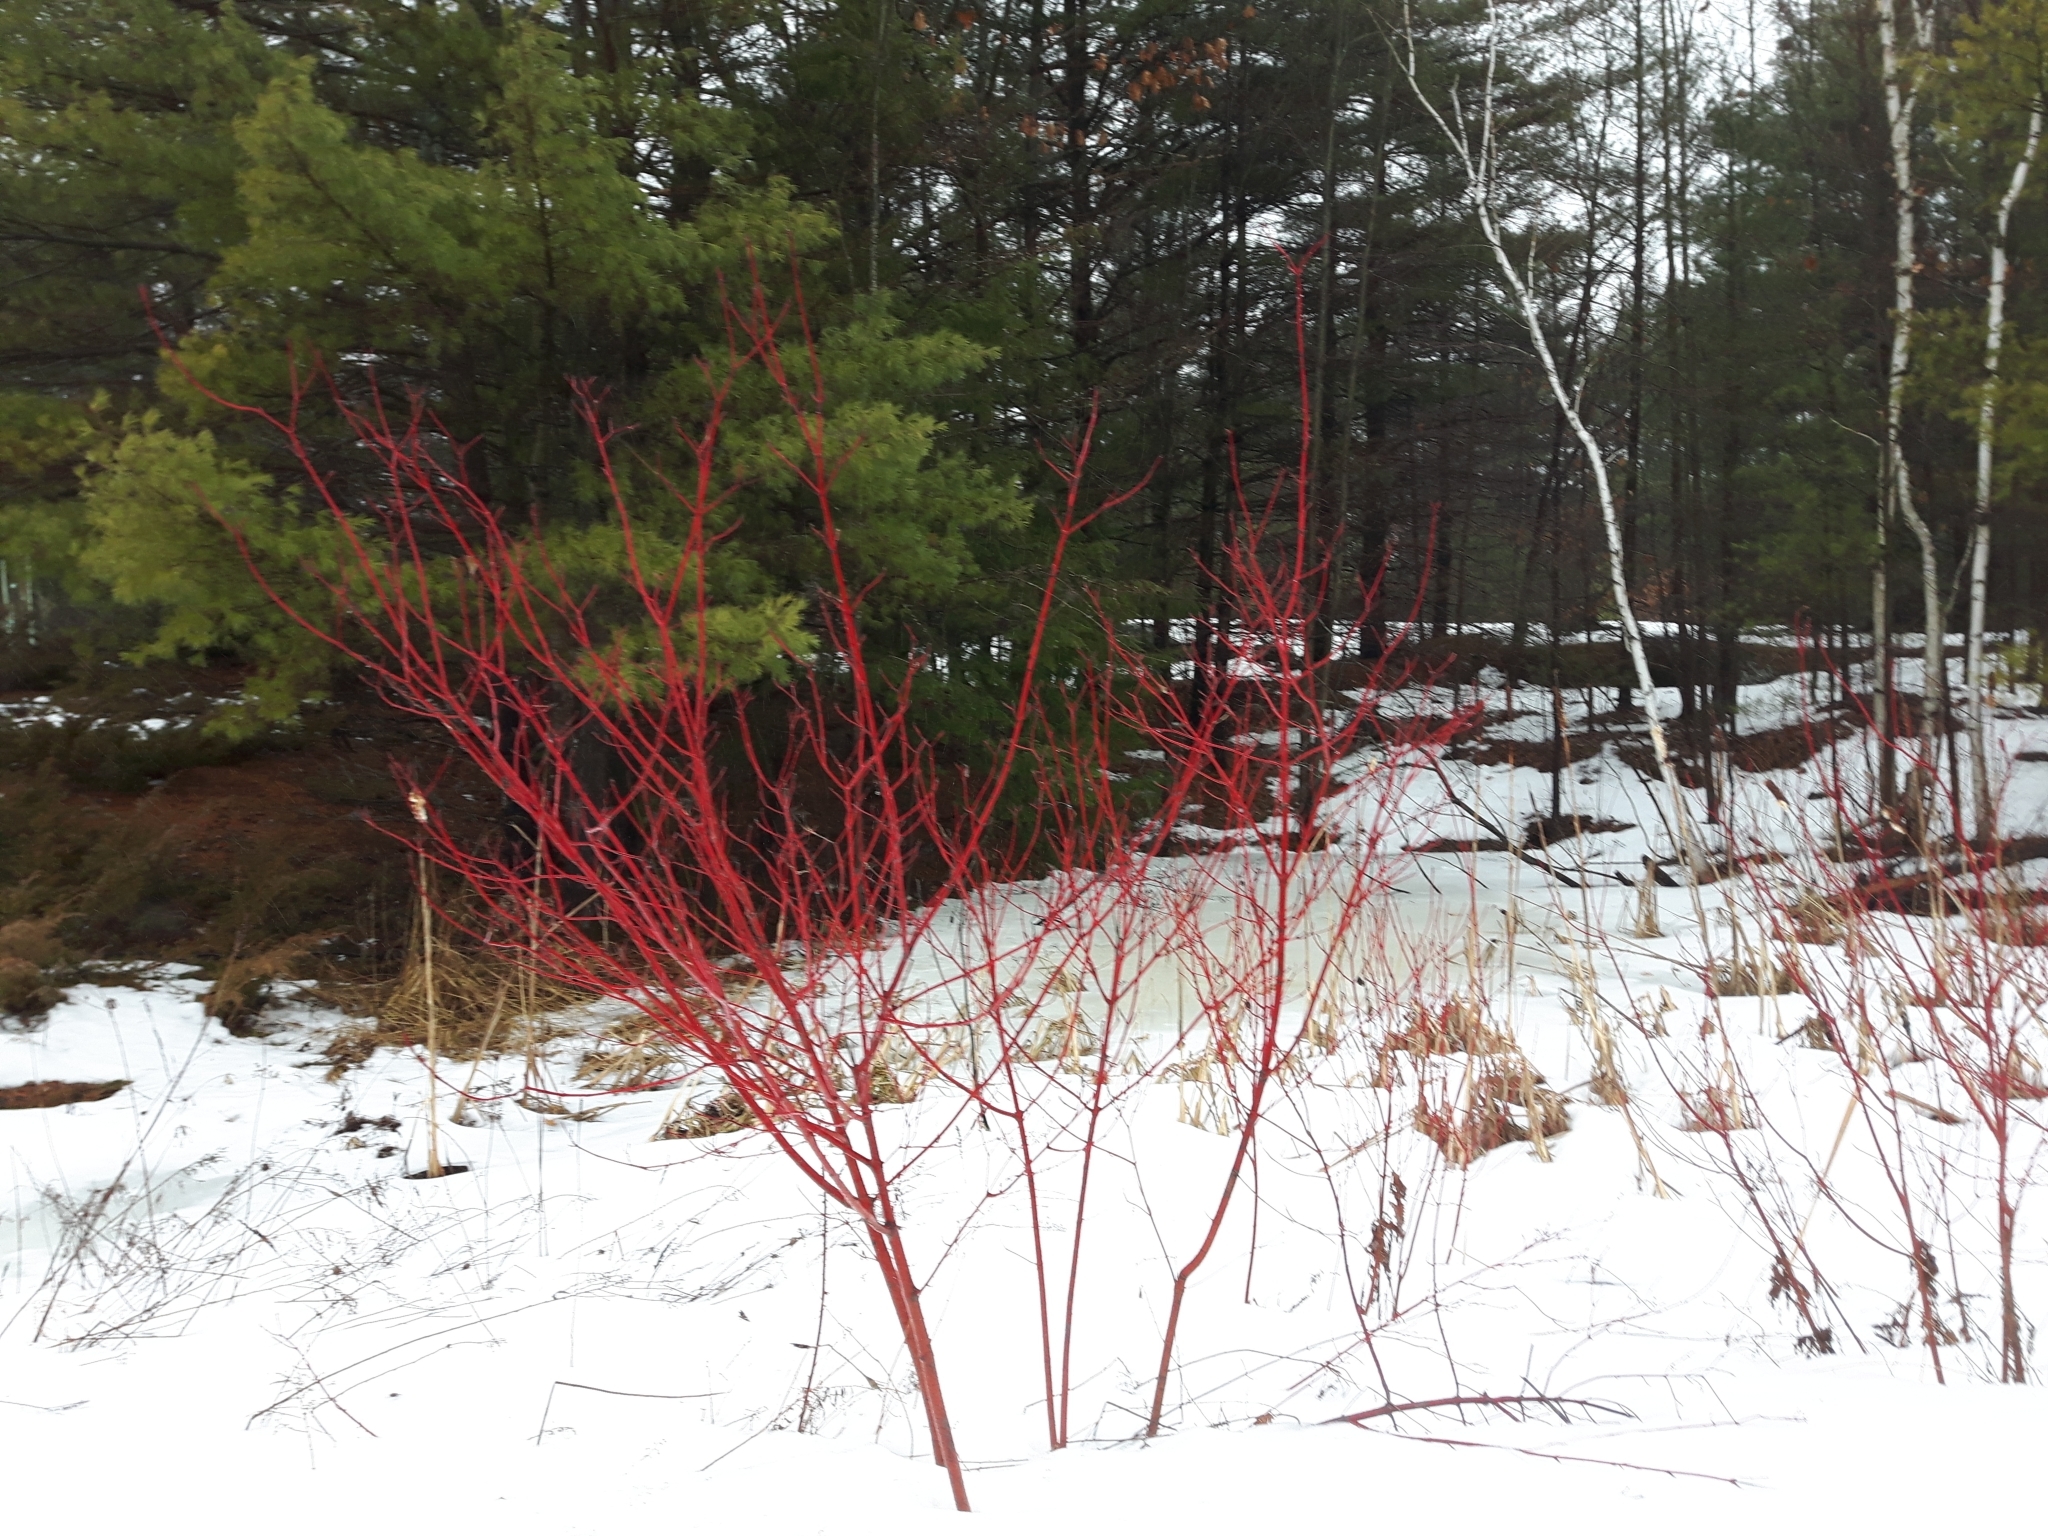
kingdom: Plantae
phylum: Tracheophyta
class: Magnoliopsida
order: Cornales
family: Cornaceae
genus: Cornus
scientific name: Cornus sericea
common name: Red-osier dogwood
